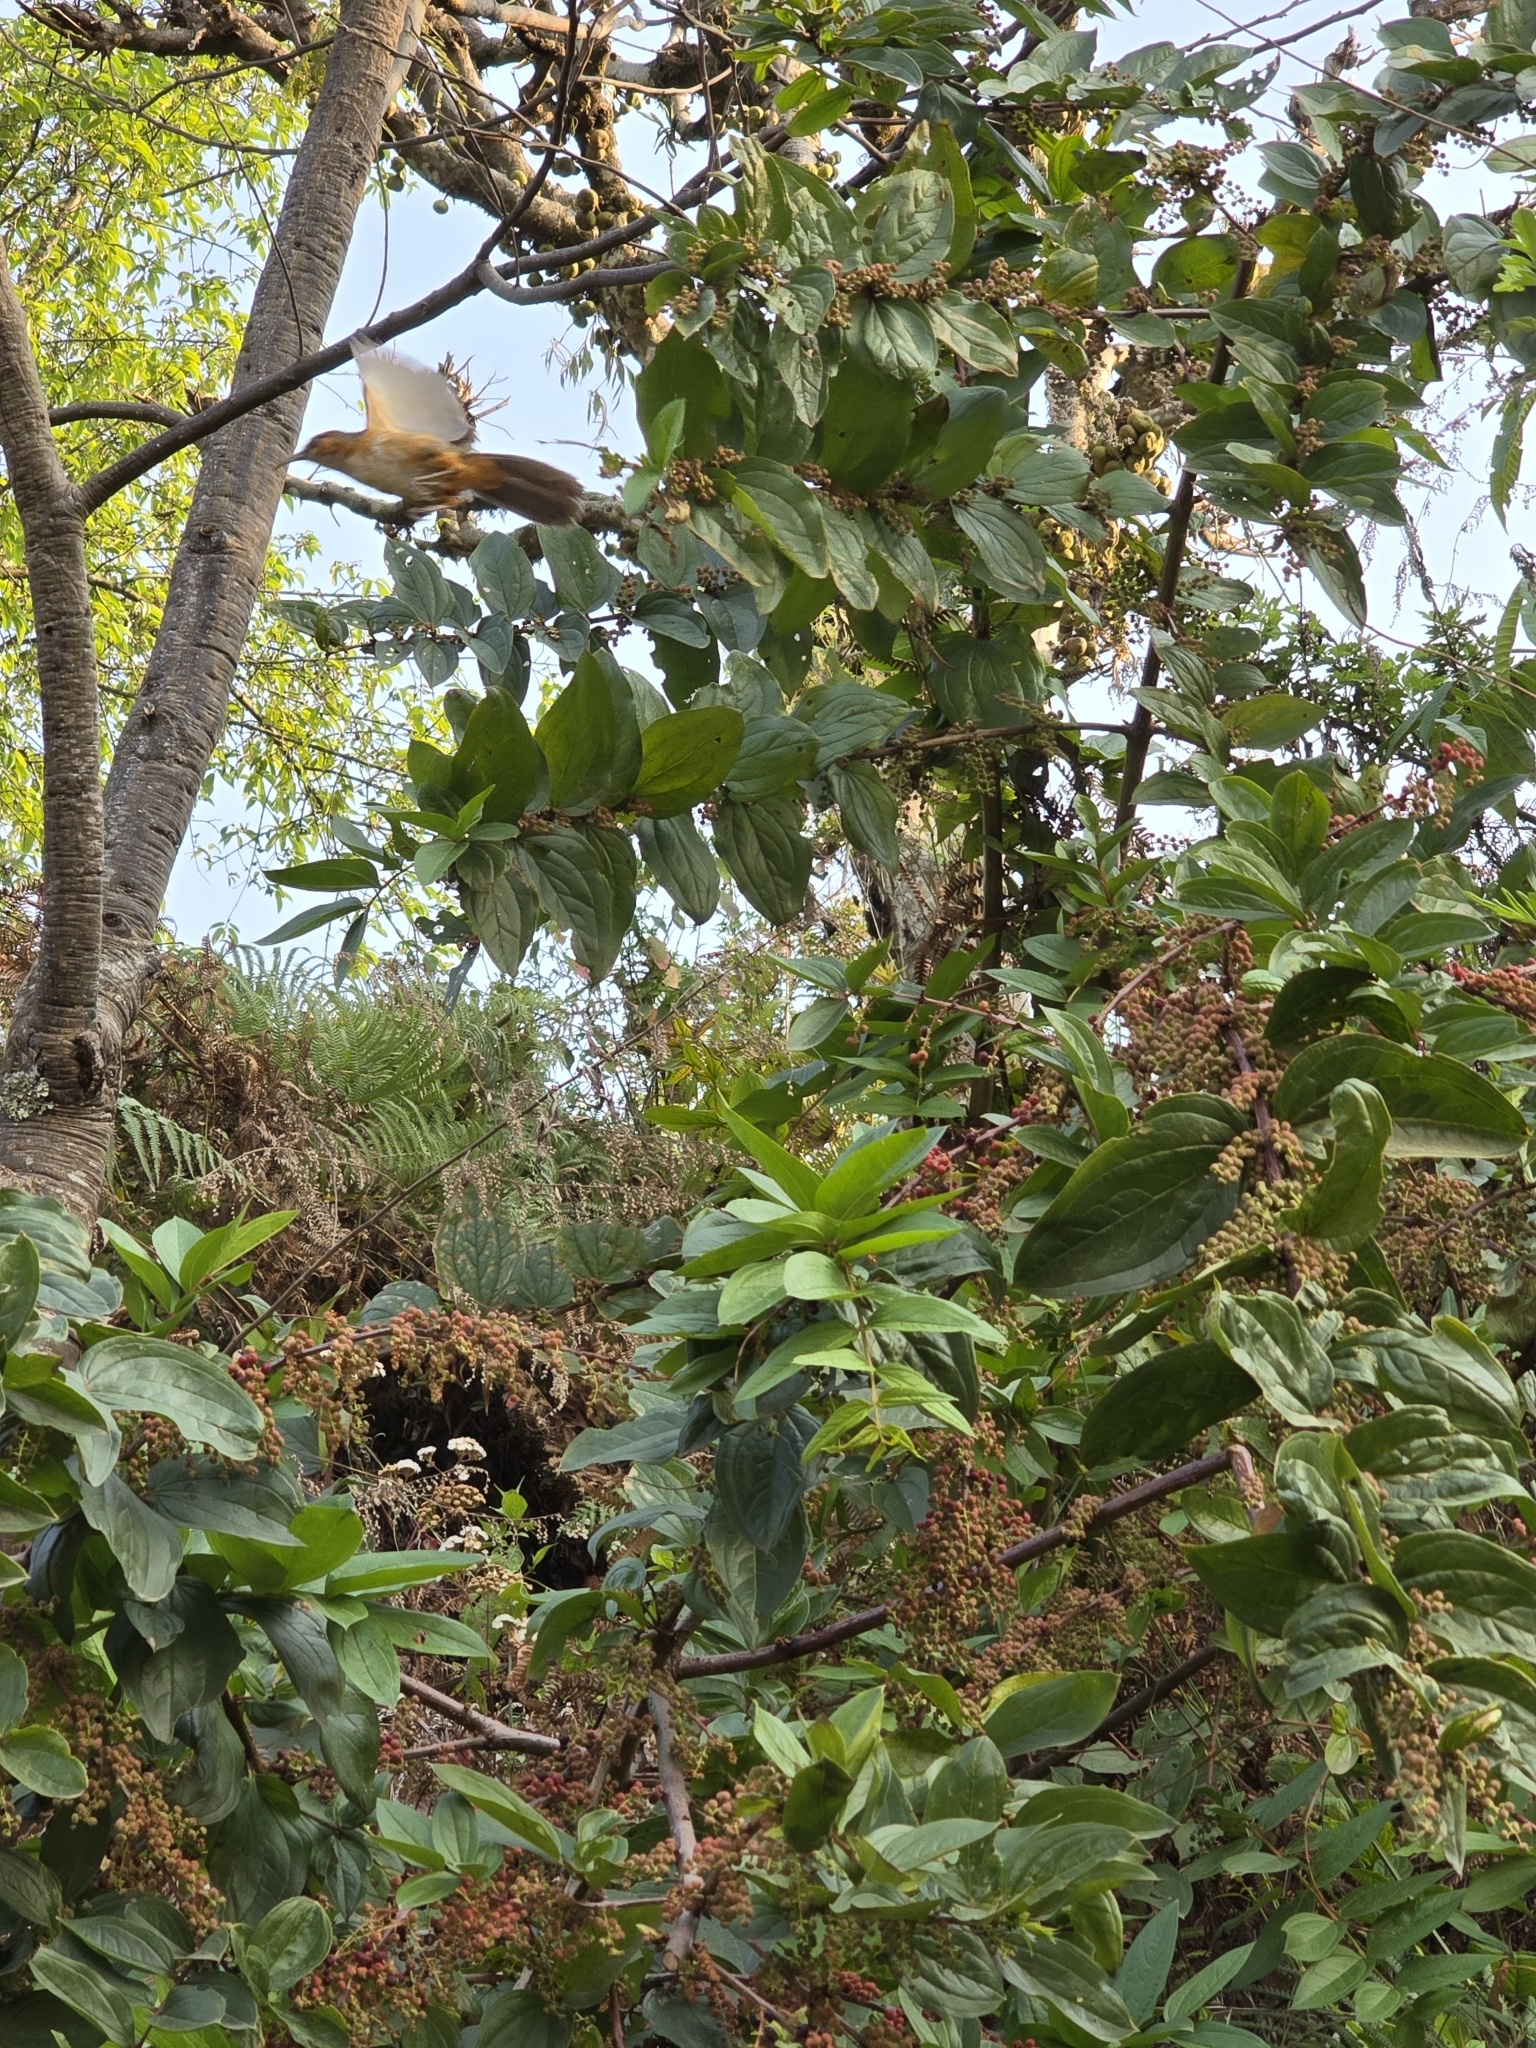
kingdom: Animalia
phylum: Chordata
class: Aves
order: Passeriformes
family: Timaliidae
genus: Pomatorhinus
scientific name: Pomatorhinus erythrogenys
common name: Rusty-cheeked scimitar babbler
